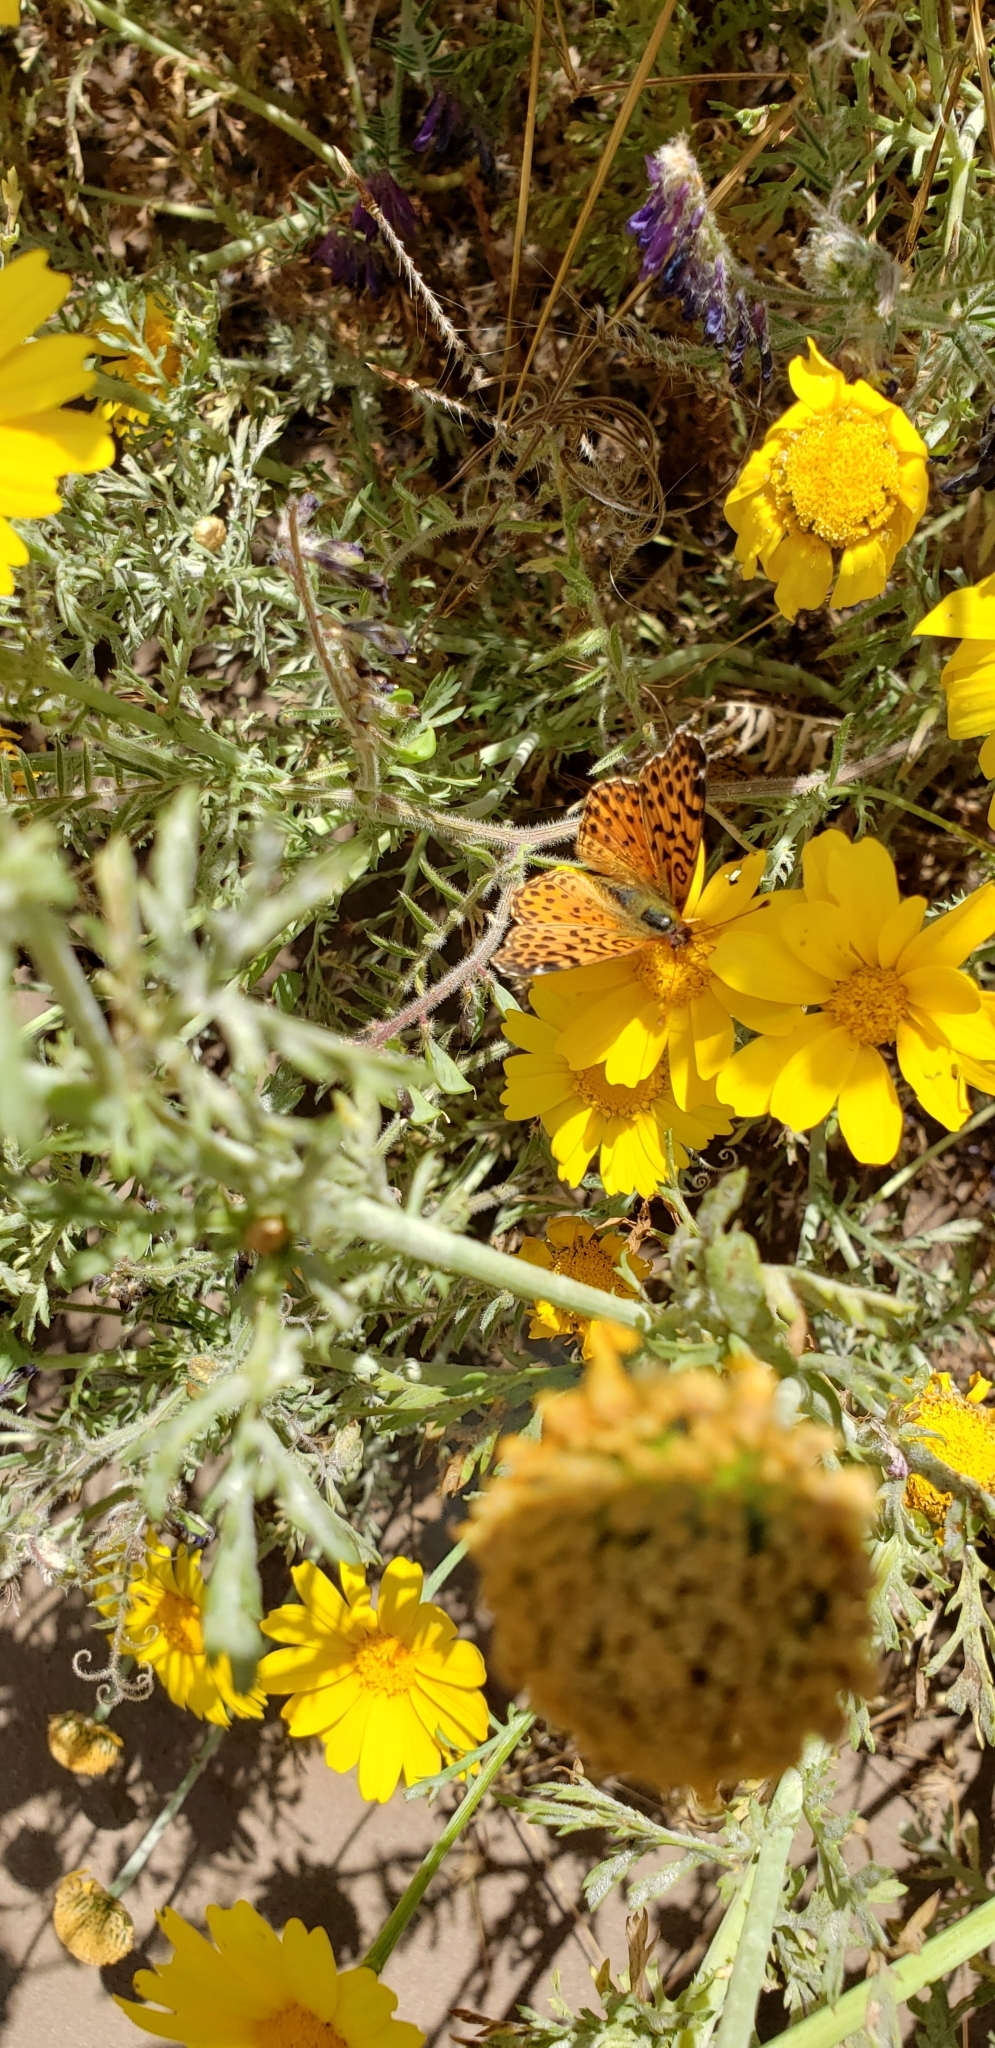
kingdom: Animalia
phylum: Arthropoda
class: Insecta
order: Lepidoptera
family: Nymphalidae
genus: Issoria
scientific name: Issoria Yramea cytheris
